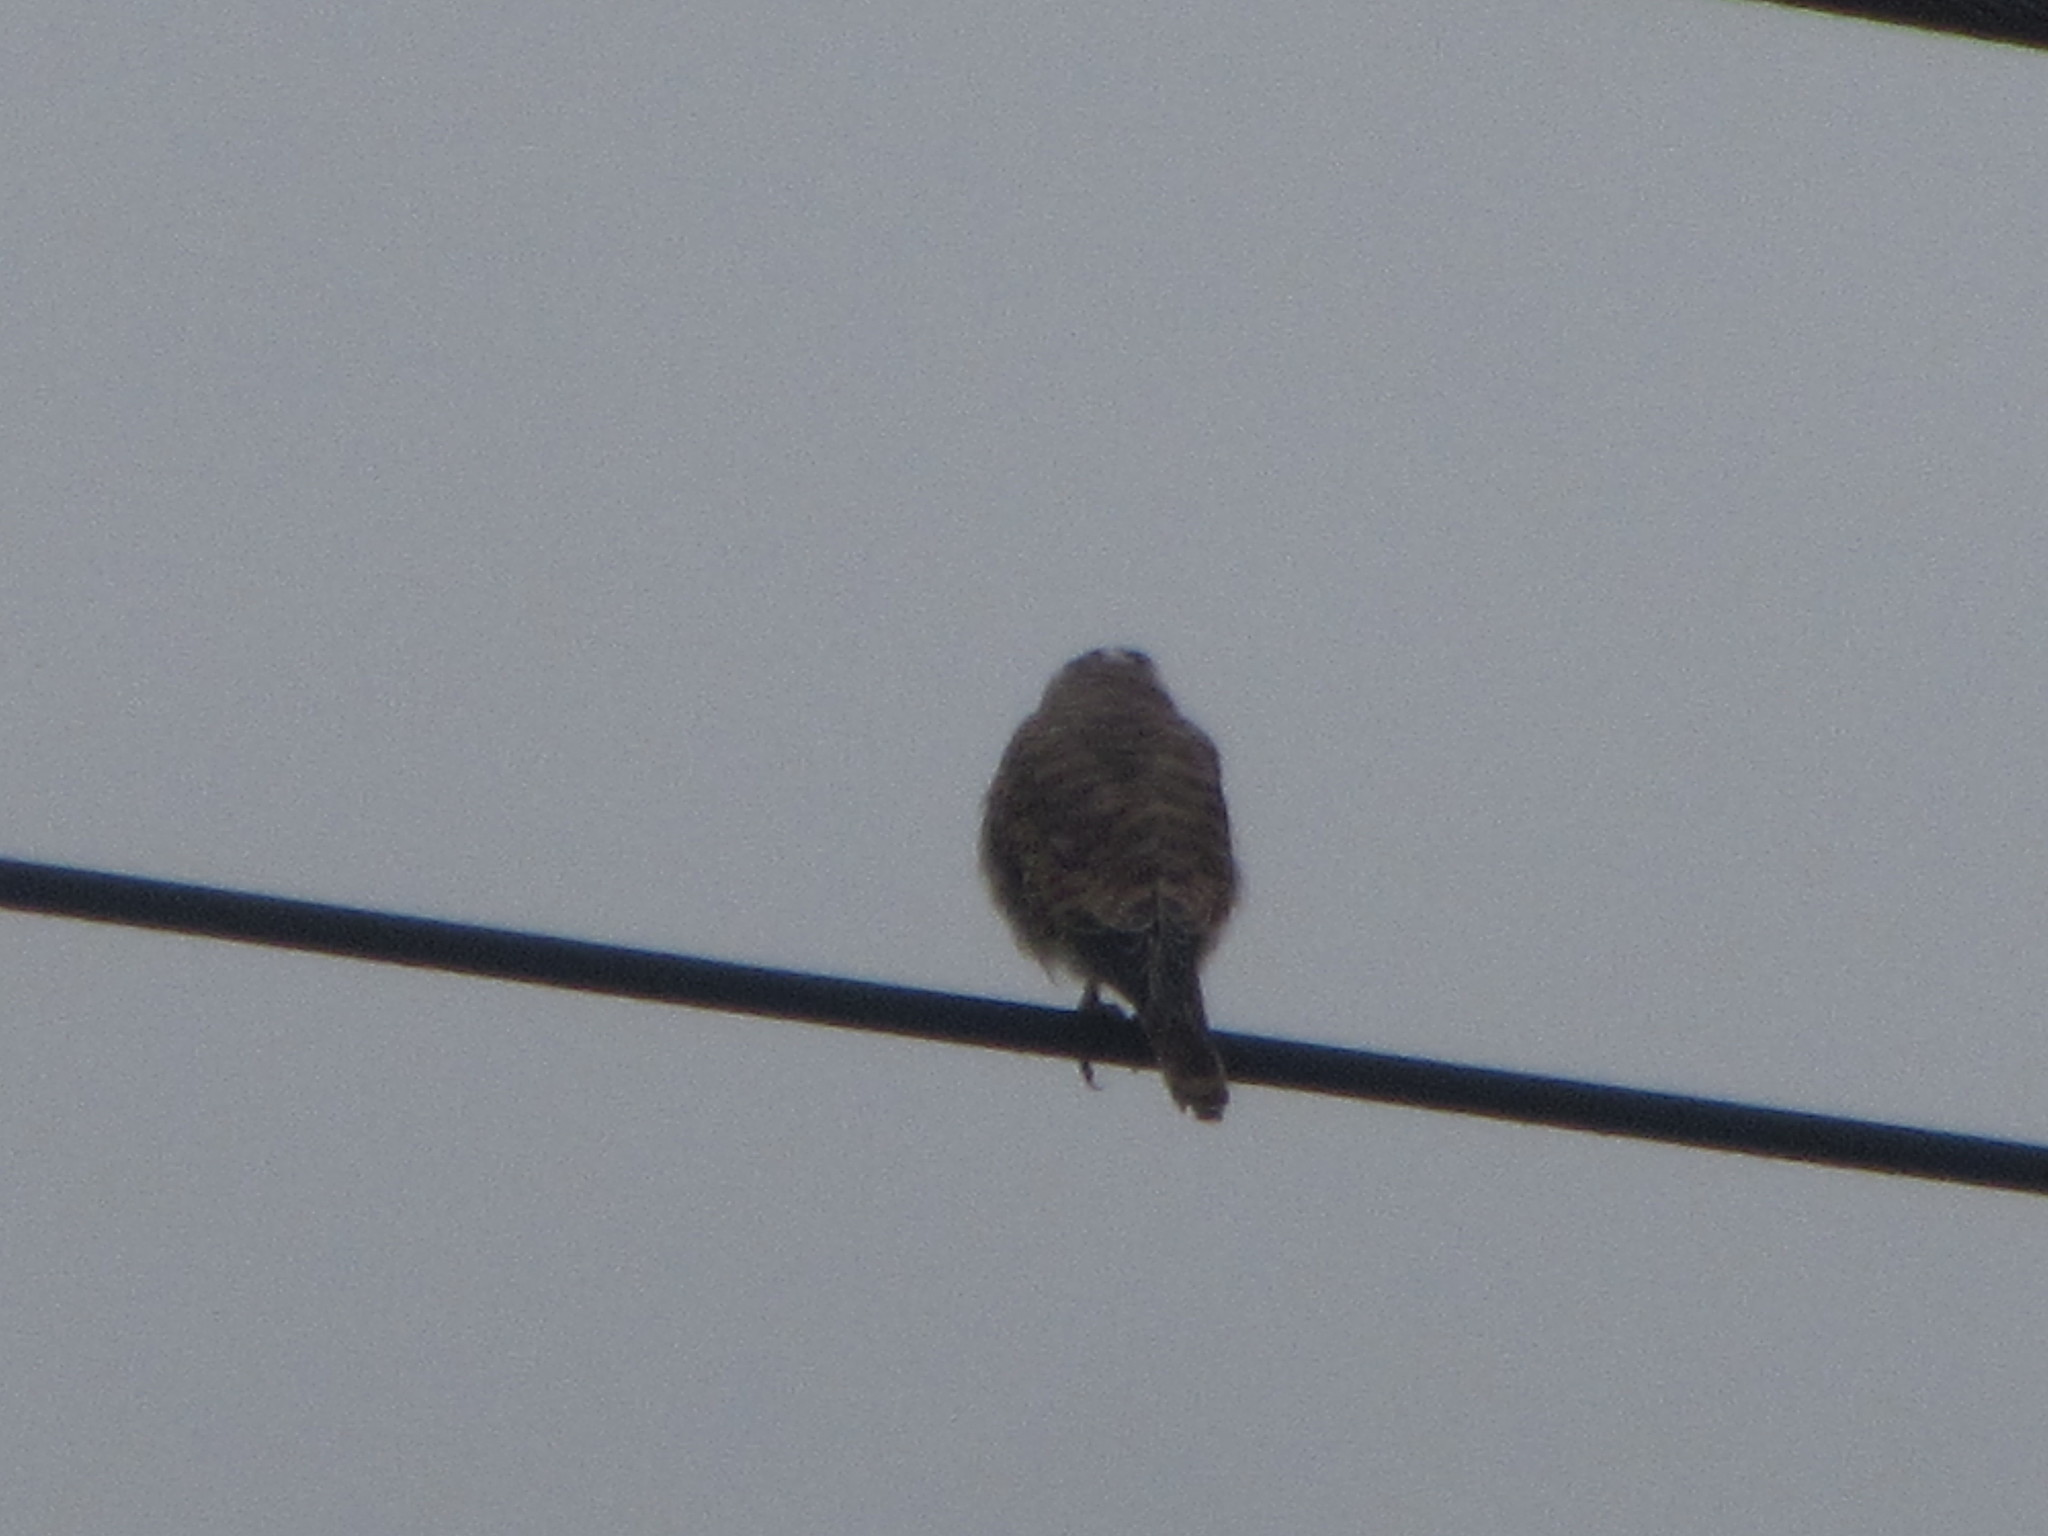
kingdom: Animalia
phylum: Chordata
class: Aves
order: Falconiformes
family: Falconidae
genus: Falco
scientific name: Falco sparverius
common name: American kestrel
